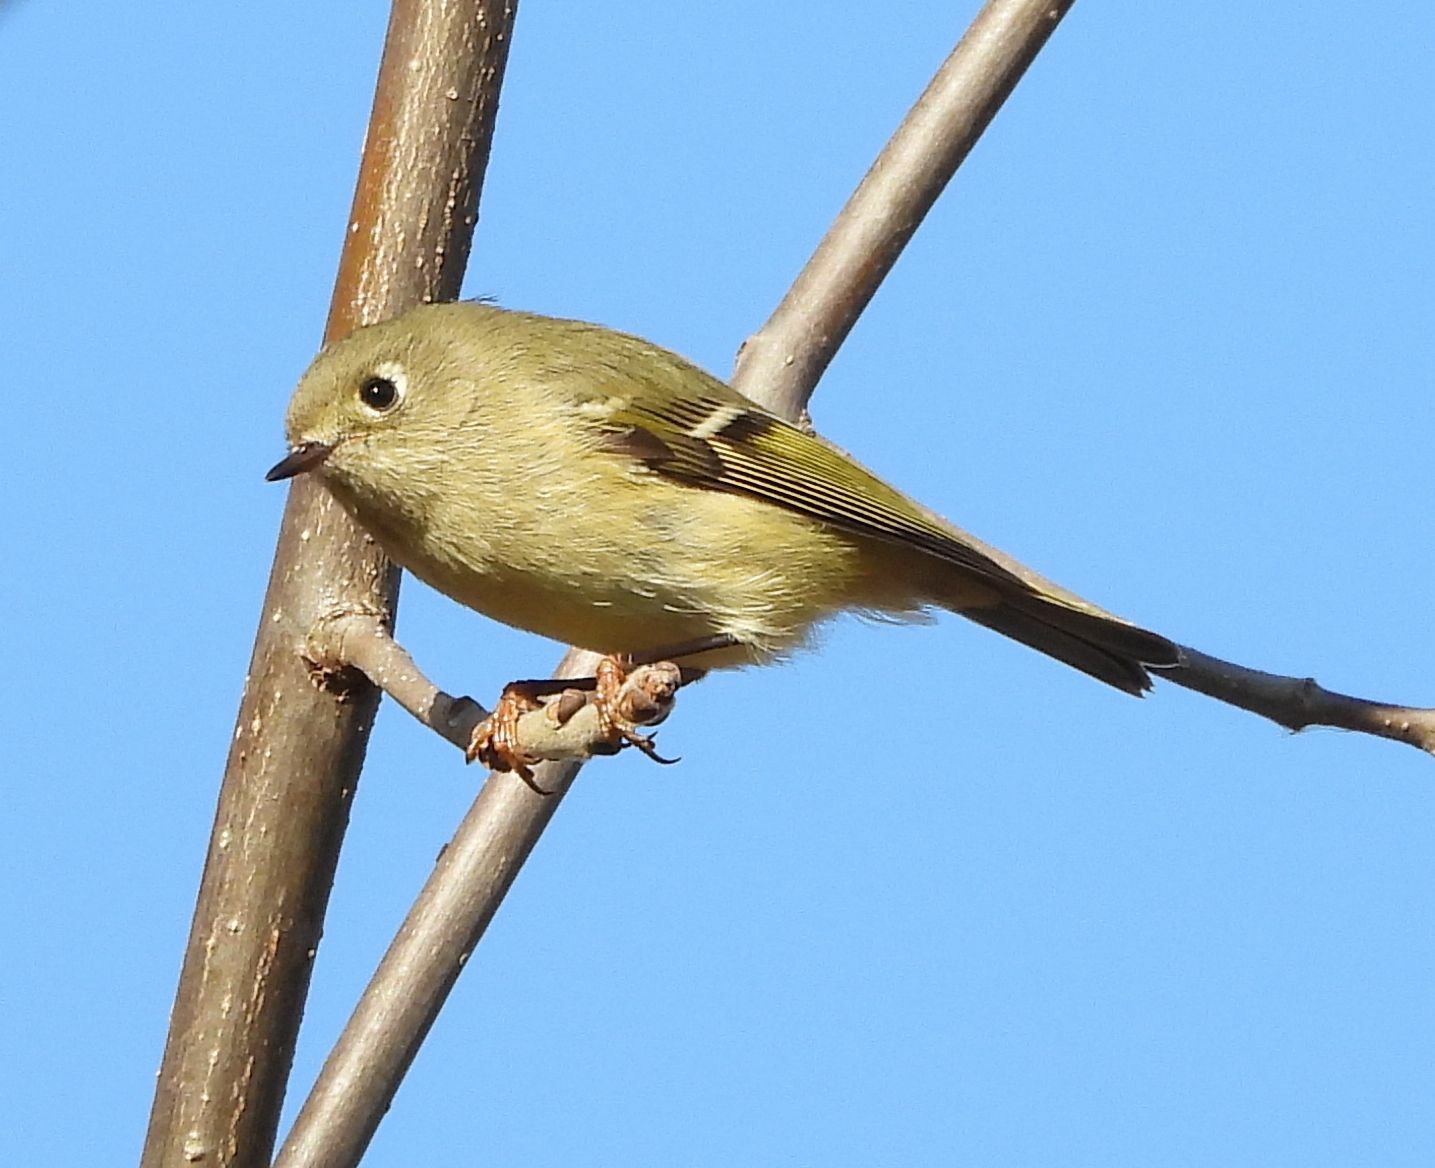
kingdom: Animalia
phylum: Chordata
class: Aves
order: Passeriformes
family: Regulidae
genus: Regulus
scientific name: Regulus calendula
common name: Ruby-crowned kinglet
